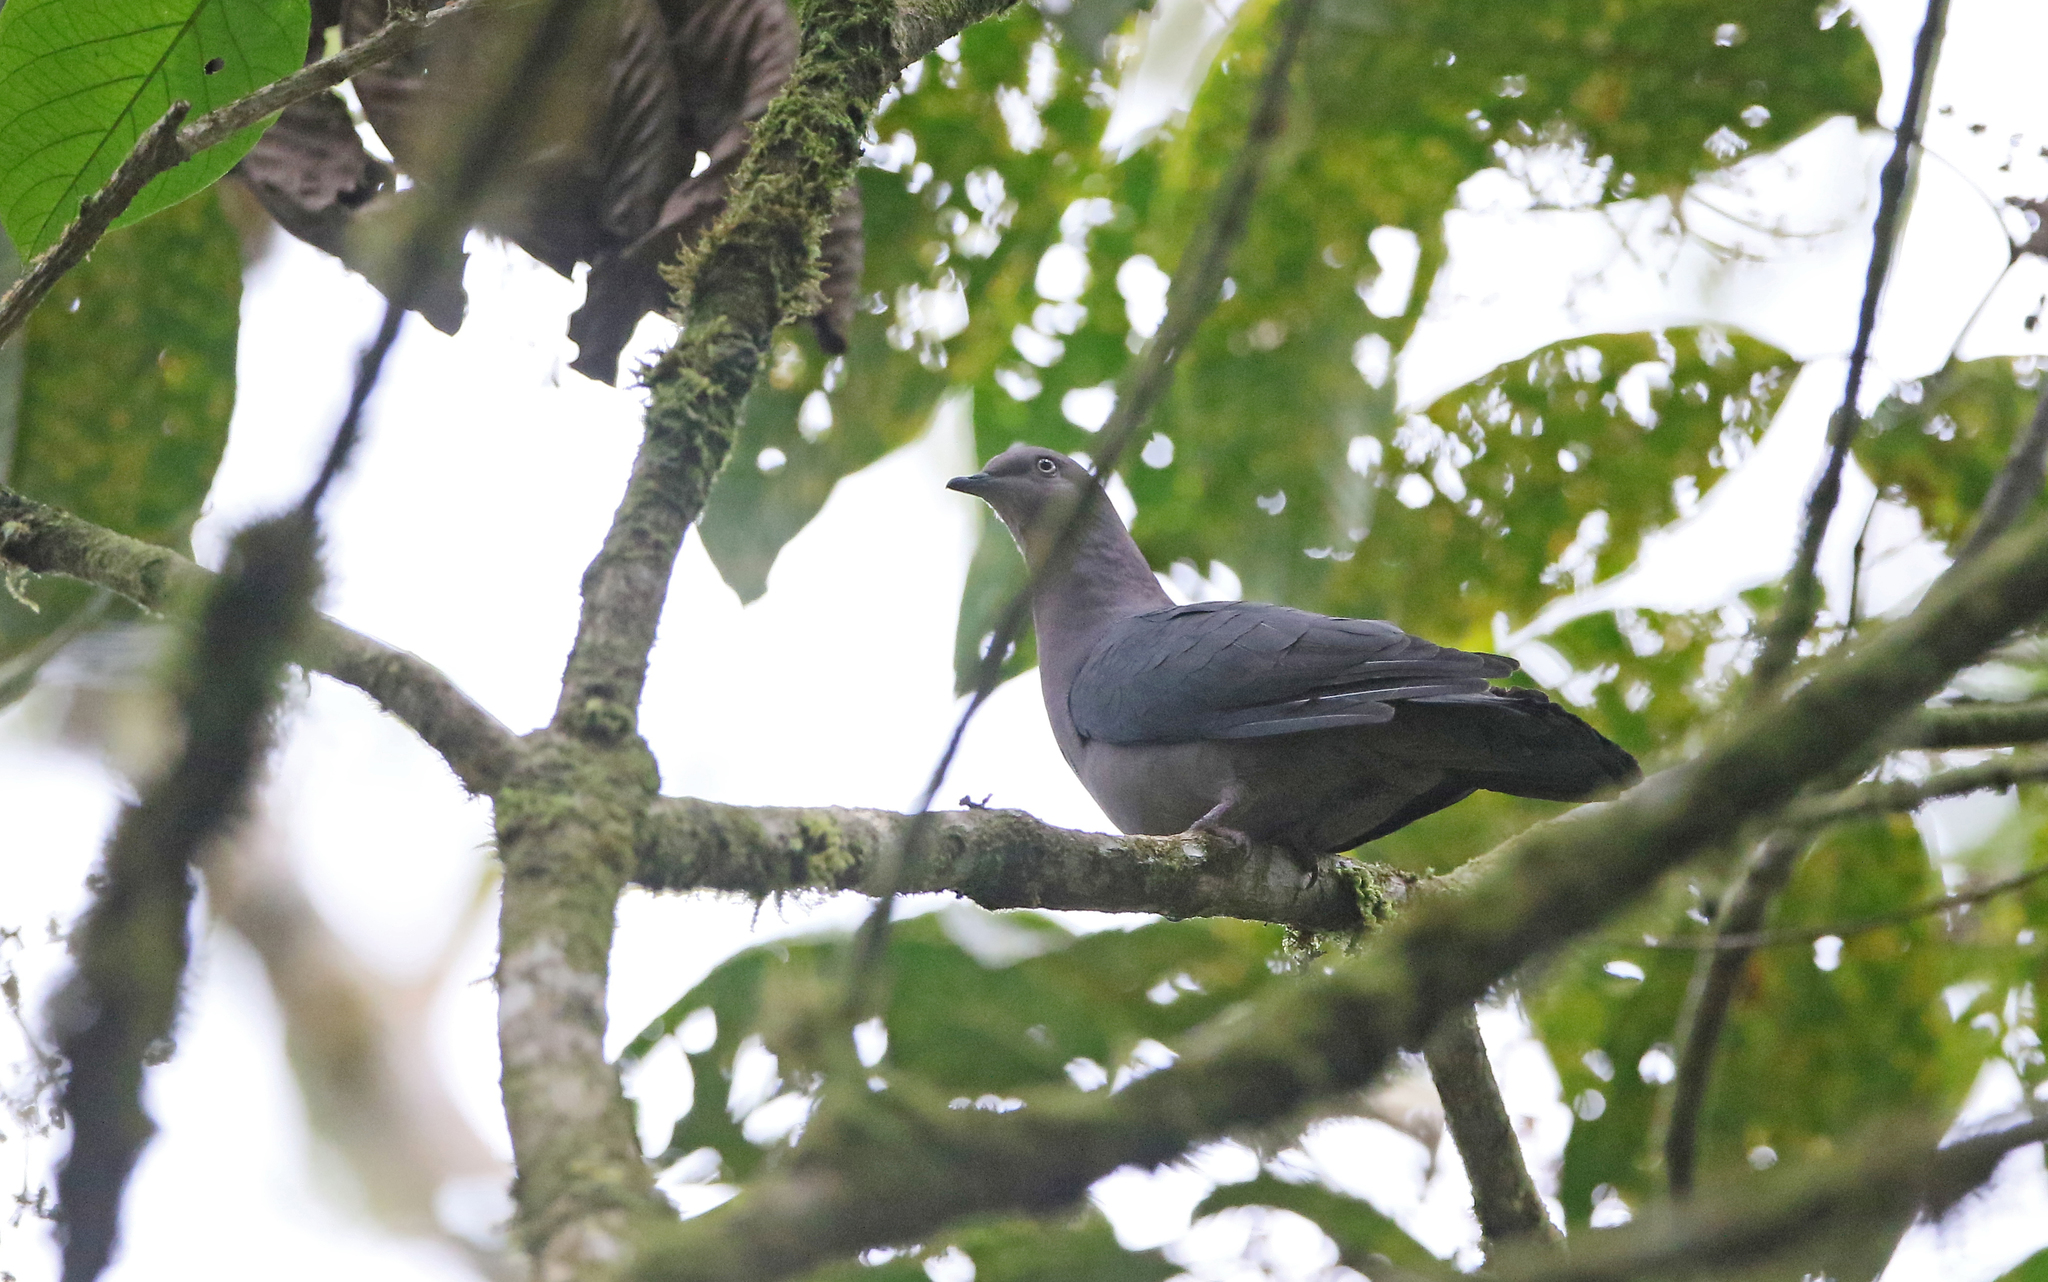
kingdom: Animalia
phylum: Chordata
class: Aves
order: Columbiformes
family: Columbidae
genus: Patagioenas
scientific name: Patagioenas plumbea
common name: Plumbeous pigeon
